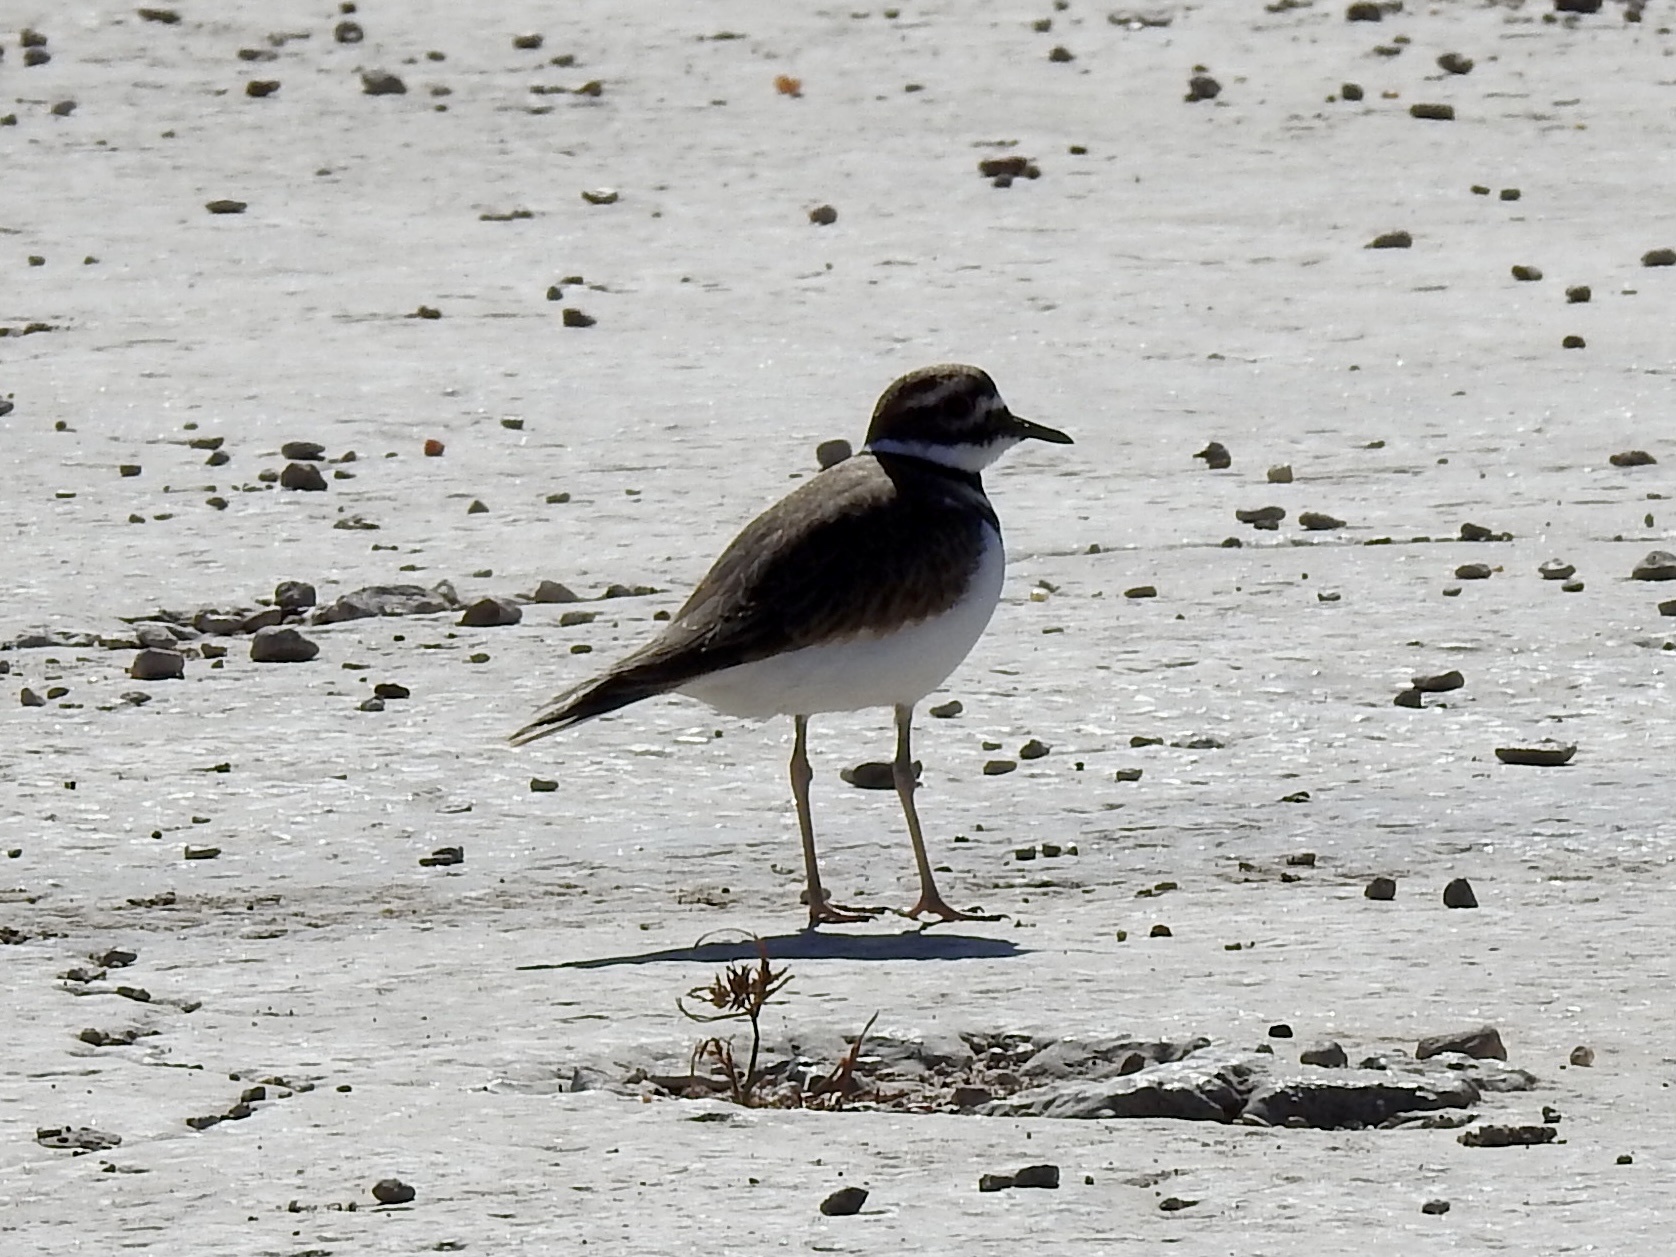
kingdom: Animalia
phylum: Chordata
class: Aves
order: Charadriiformes
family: Charadriidae
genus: Charadrius
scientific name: Charadrius vociferus
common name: Killdeer
